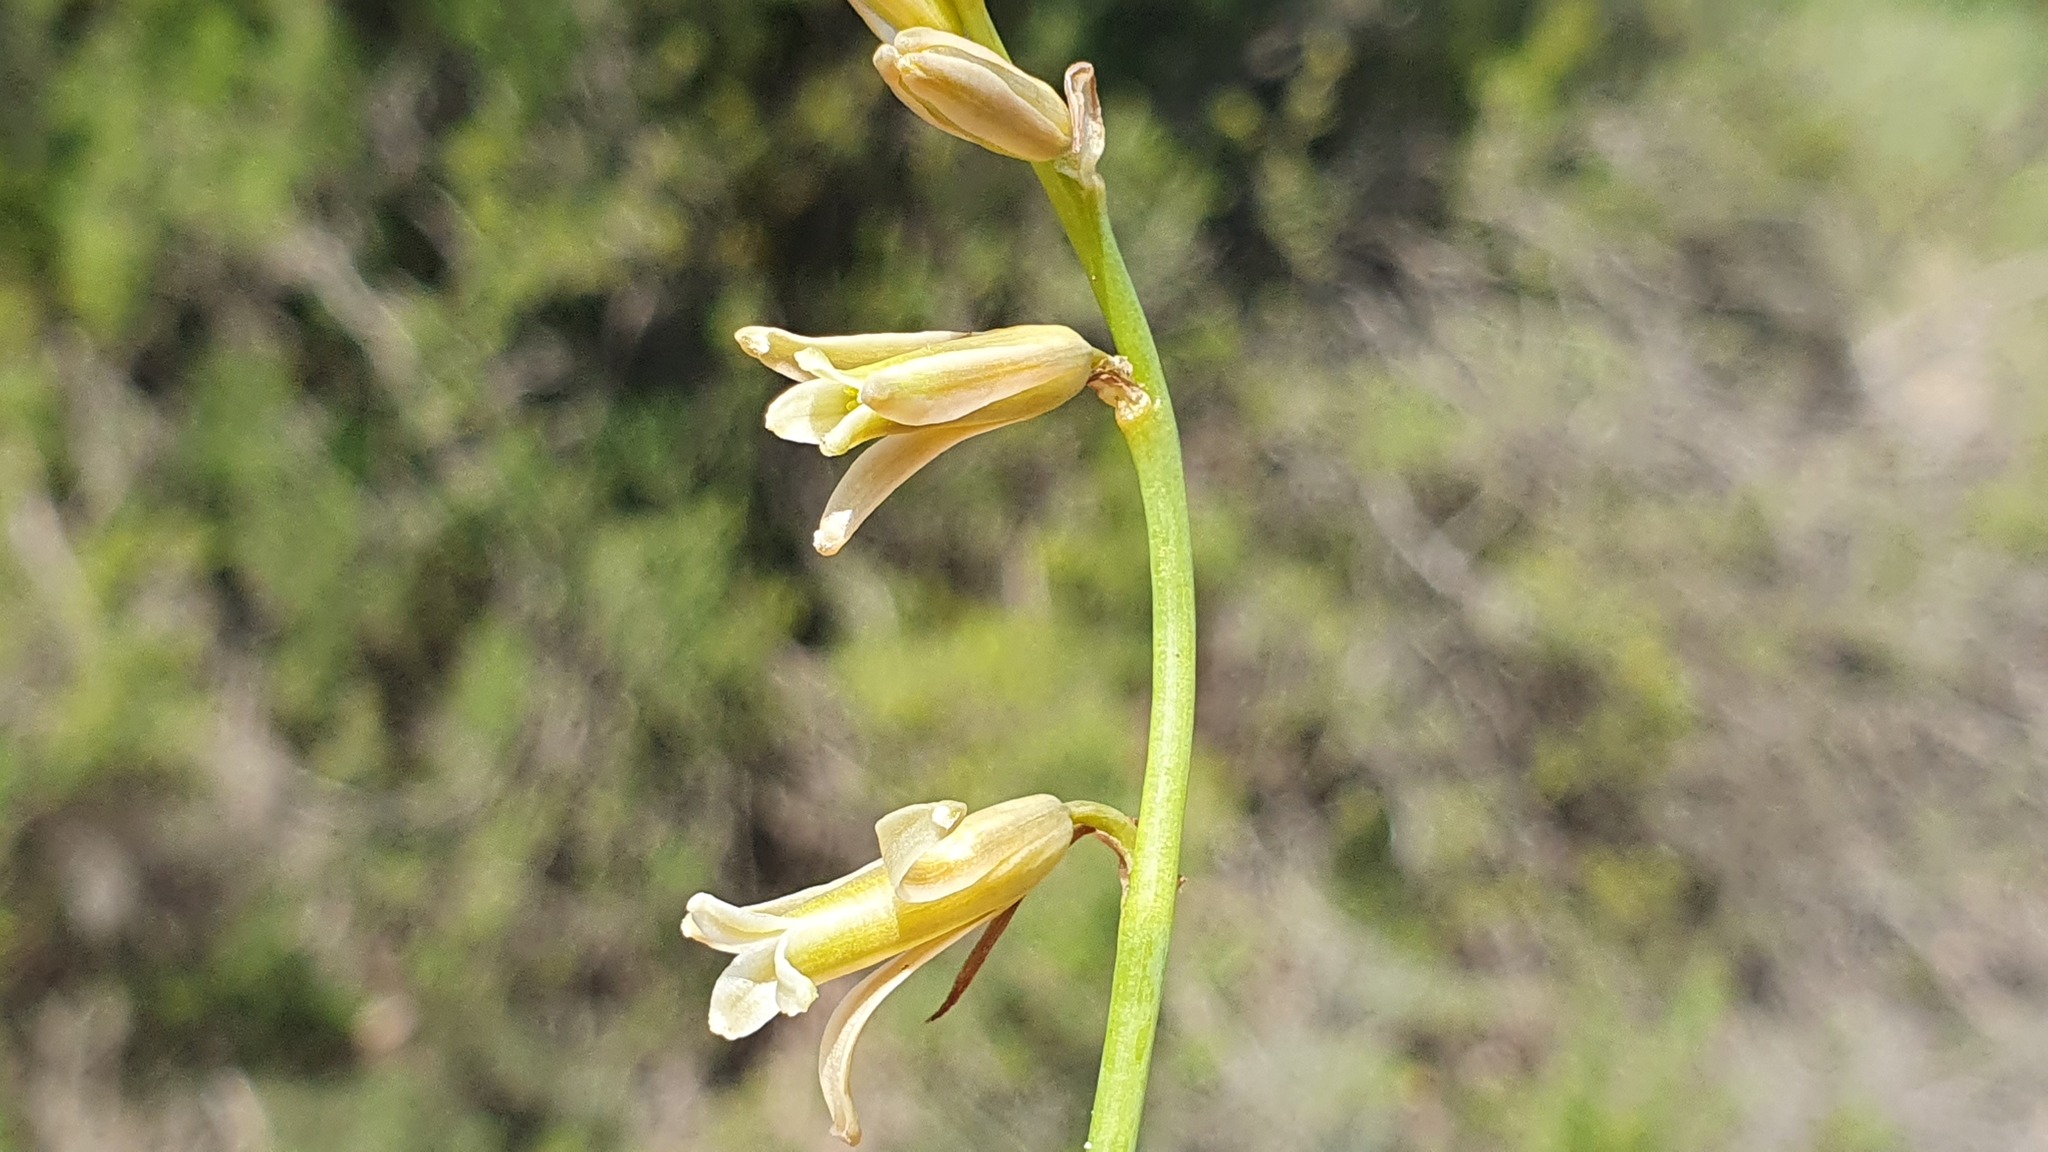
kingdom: Plantae
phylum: Tracheophyta
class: Liliopsida
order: Asparagales
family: Asparagaceae
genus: Dipcadi
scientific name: Dipcadi serotinum
